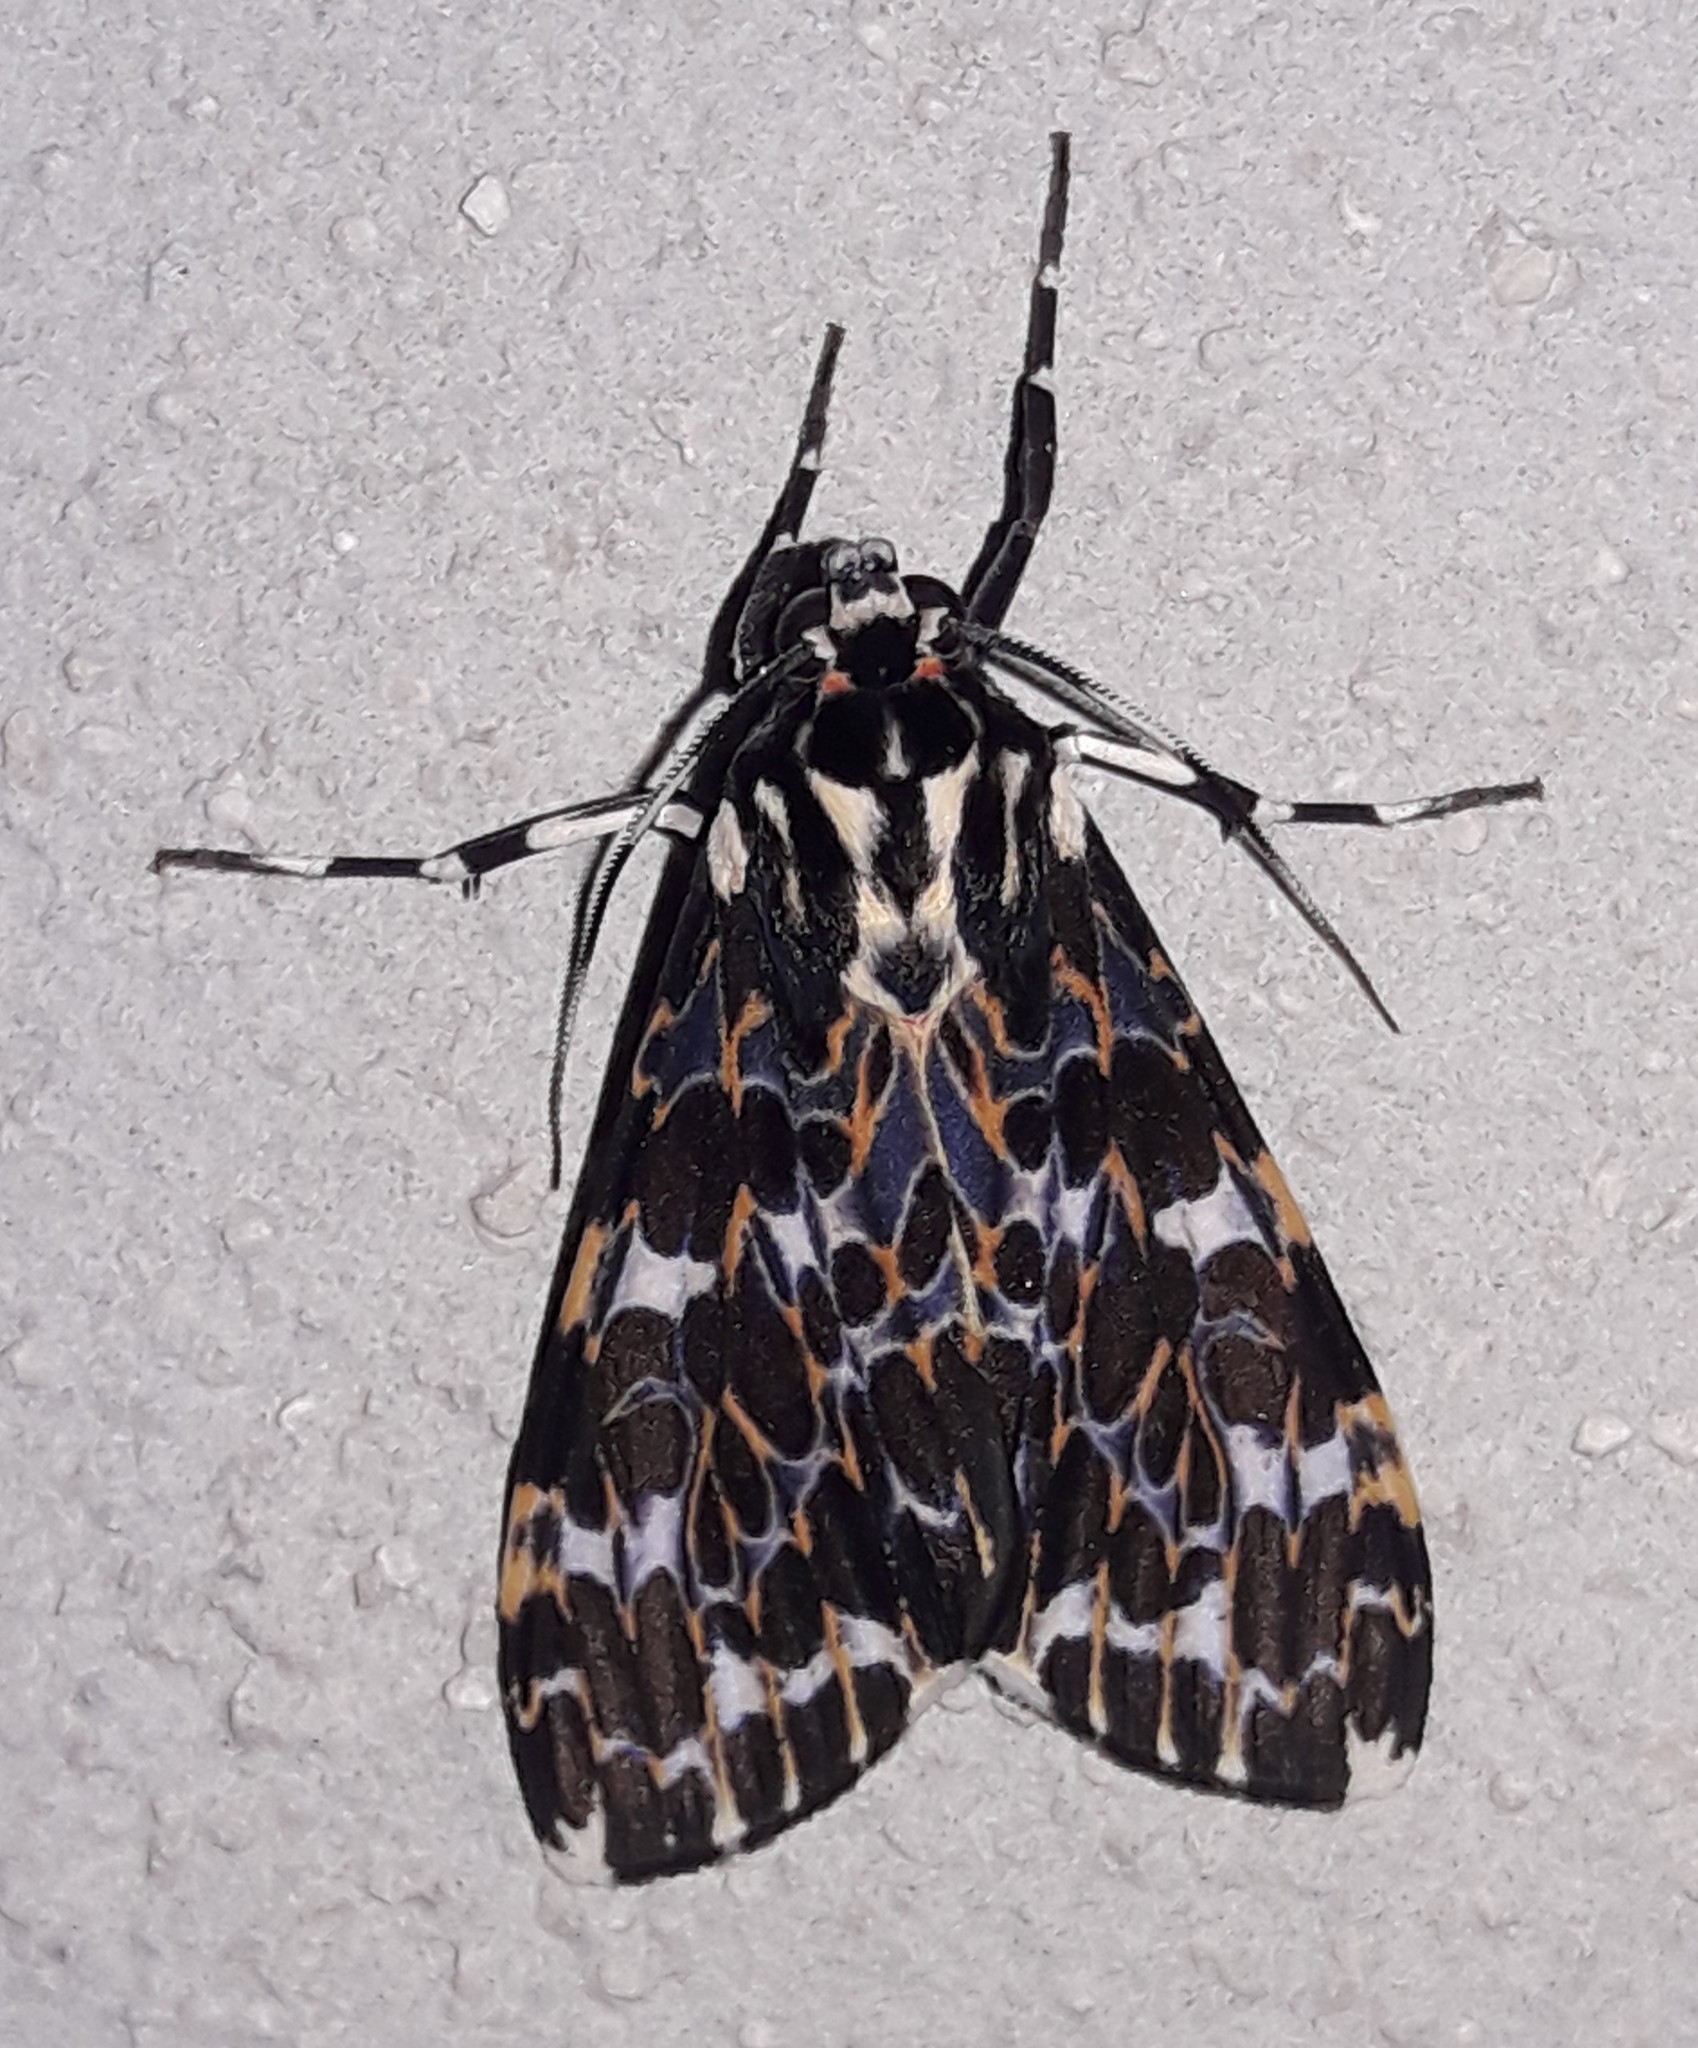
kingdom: Animalia
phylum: Arthropoda
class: Insecta
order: Lepidoptera
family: Erebidae
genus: Eucereon
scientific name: Eucereon tarona
